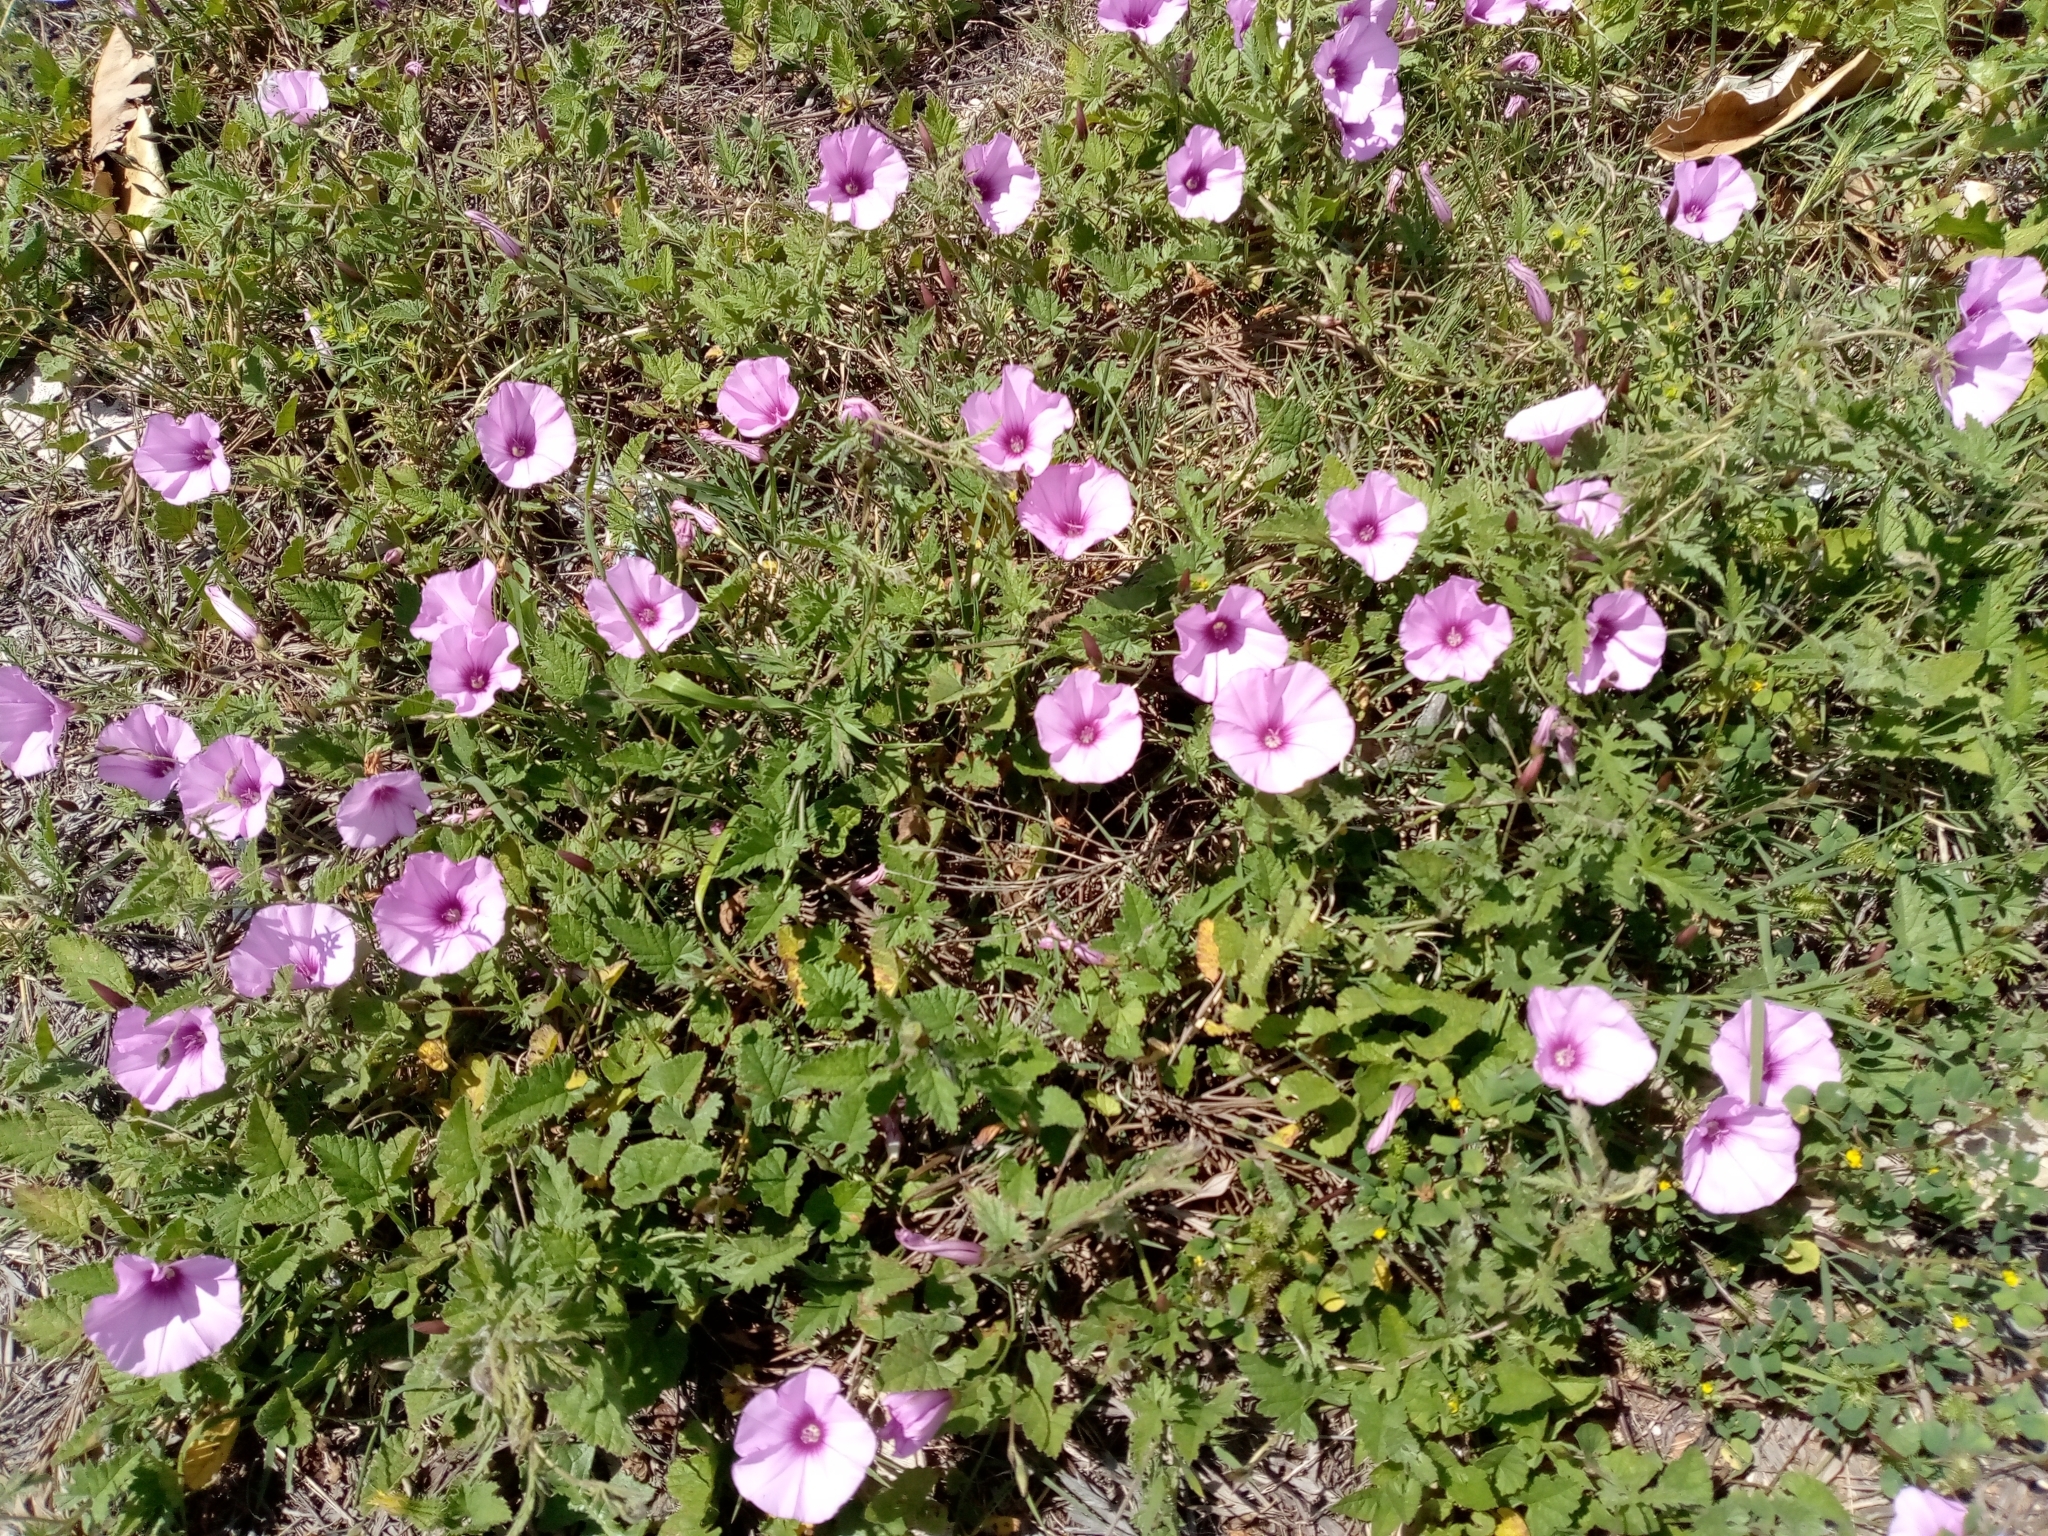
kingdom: Plantae
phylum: Tracheophyta
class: Magnoliopsida
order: Solanales
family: Convolvulaceae
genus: Convolvulus
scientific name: Convolvulus althaeoides
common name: Mallow bindweed
